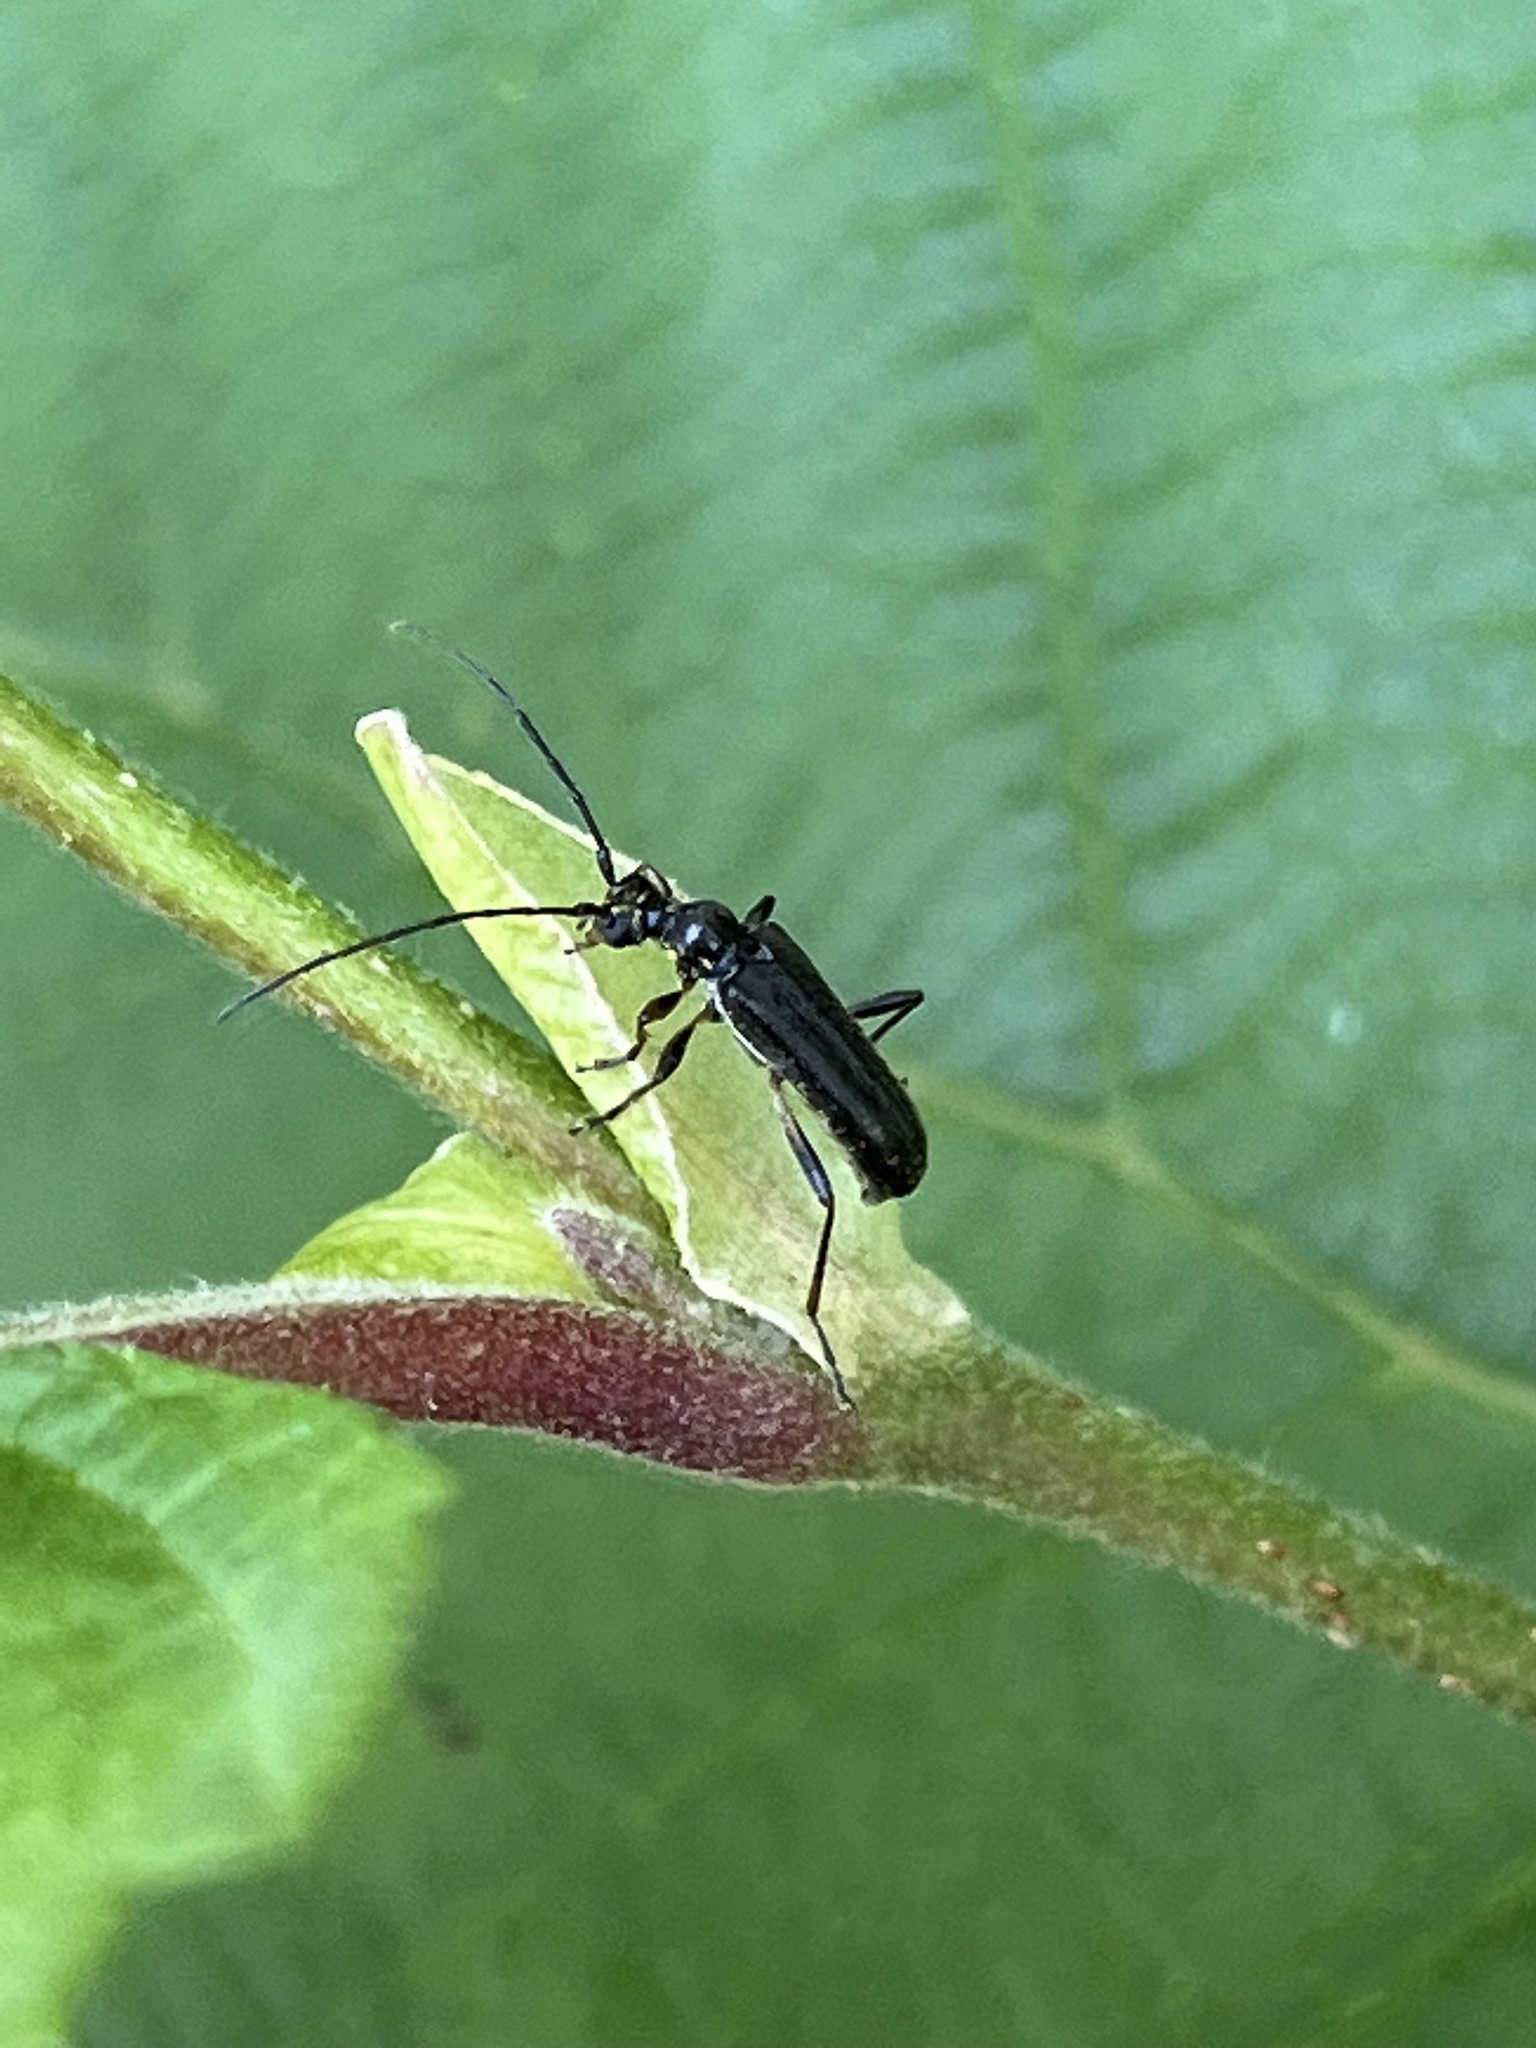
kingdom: Animalia
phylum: Arthropoda
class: Insecta
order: Coleoptera
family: Cerambycidae
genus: Pidonia
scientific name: Pidonia ruficollis
